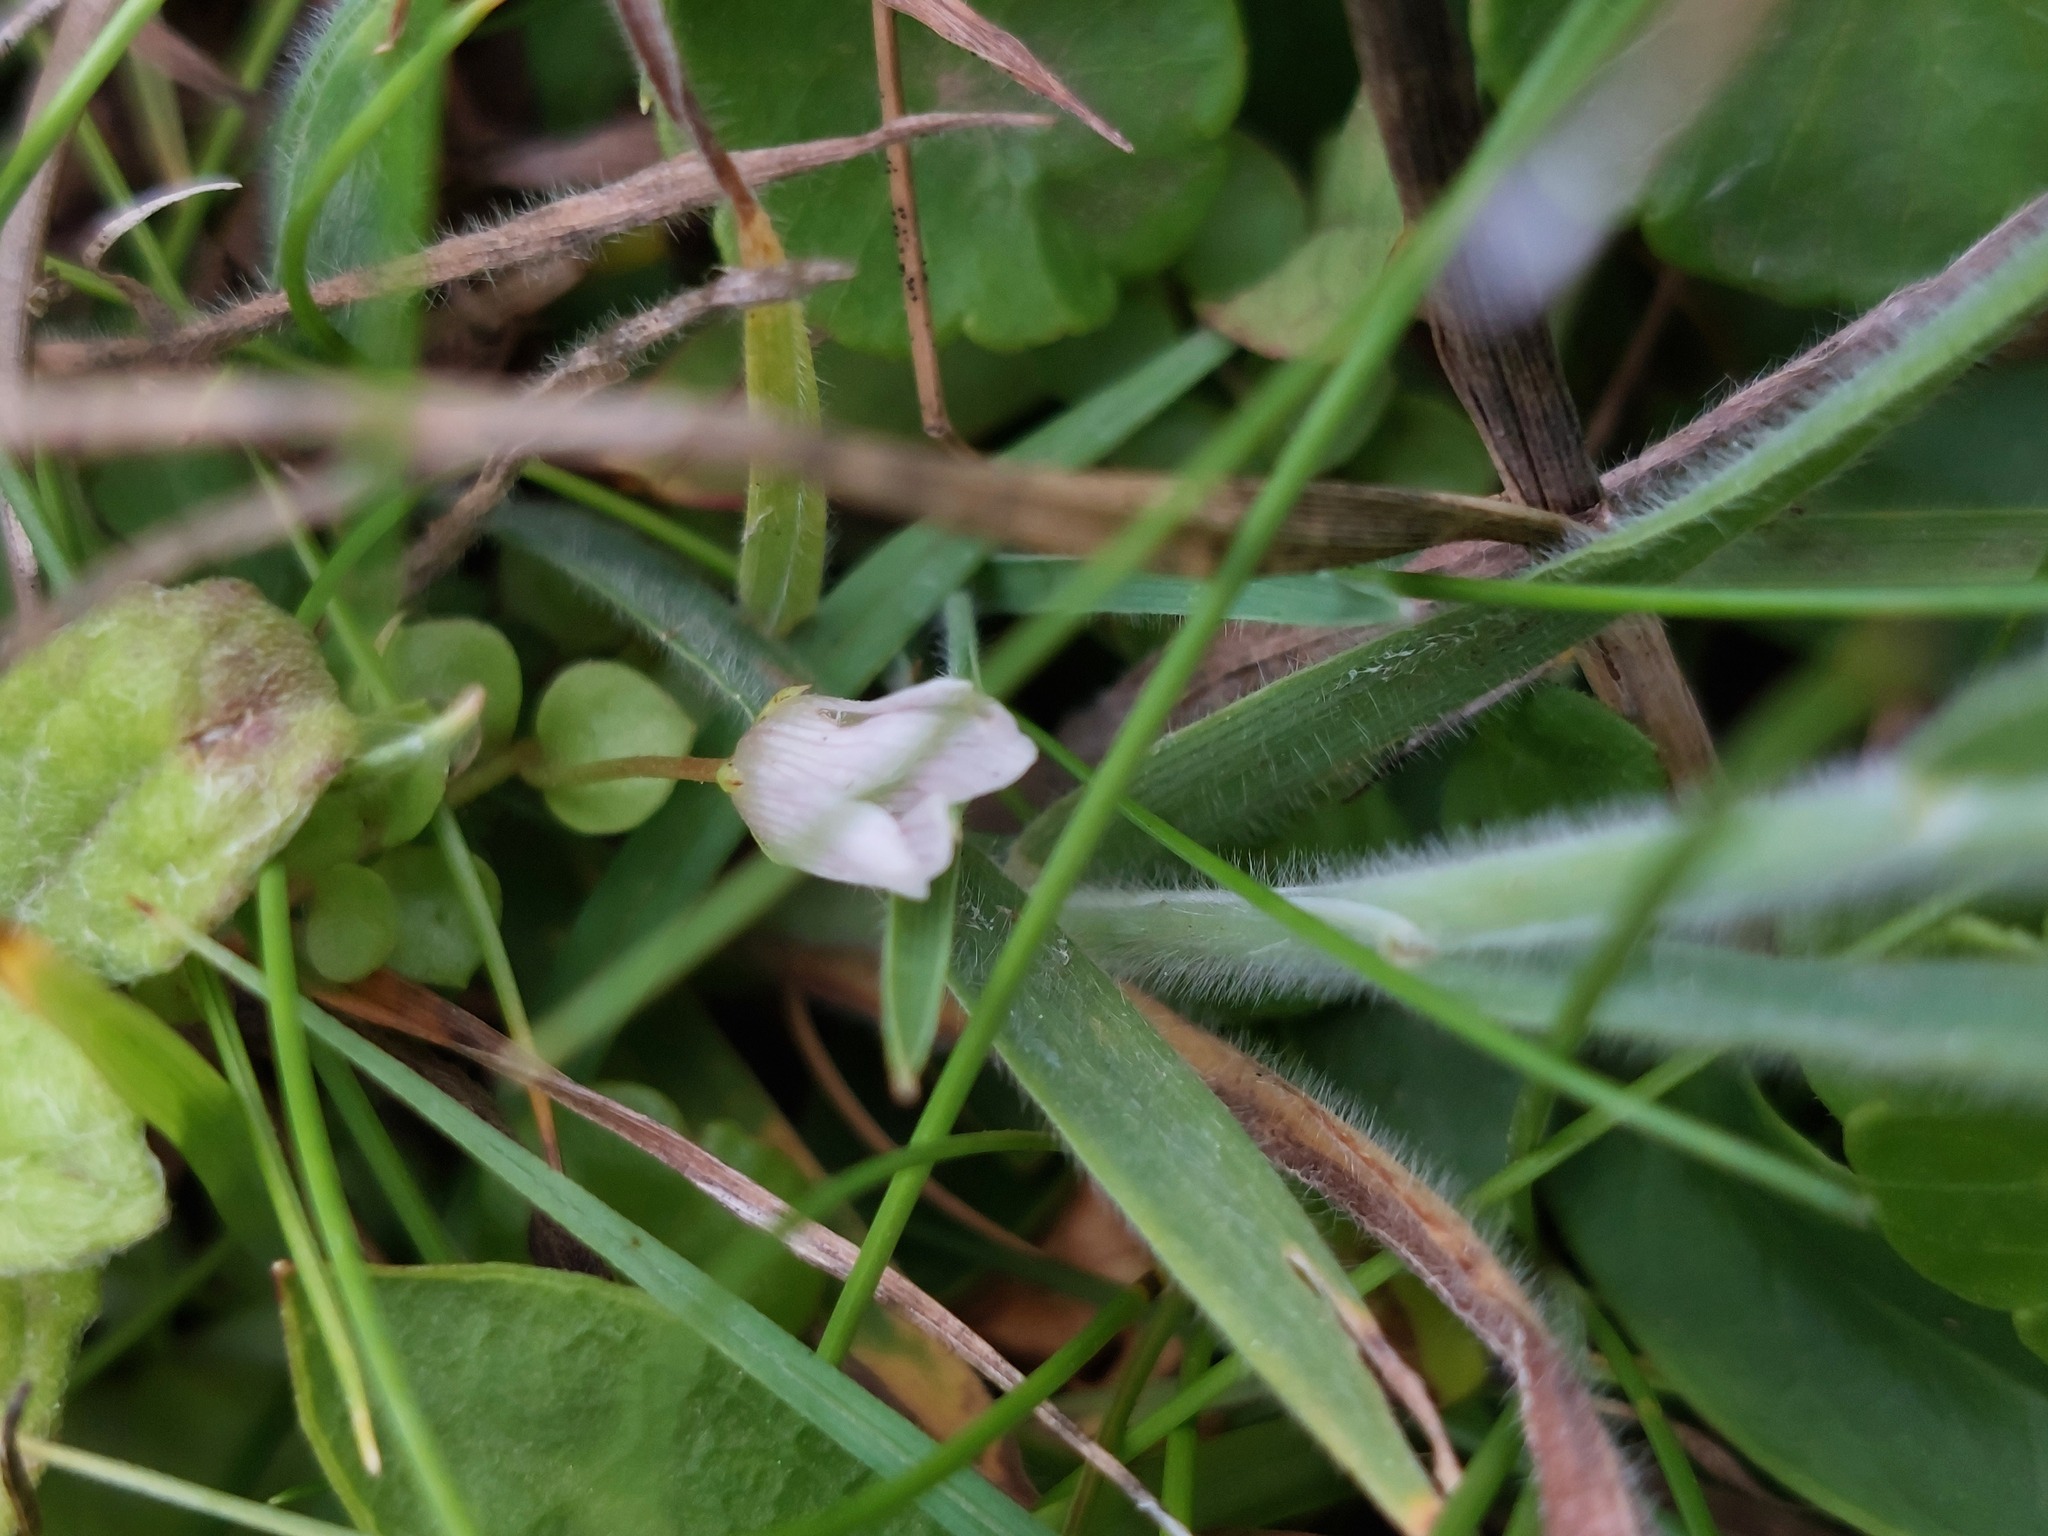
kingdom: Plantae
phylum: Tracheophyta
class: Magnoliopsida
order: Ericales
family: Primulaceae
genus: Lysimachia
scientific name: Lysimachia tenella
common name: European bog pimpernel
